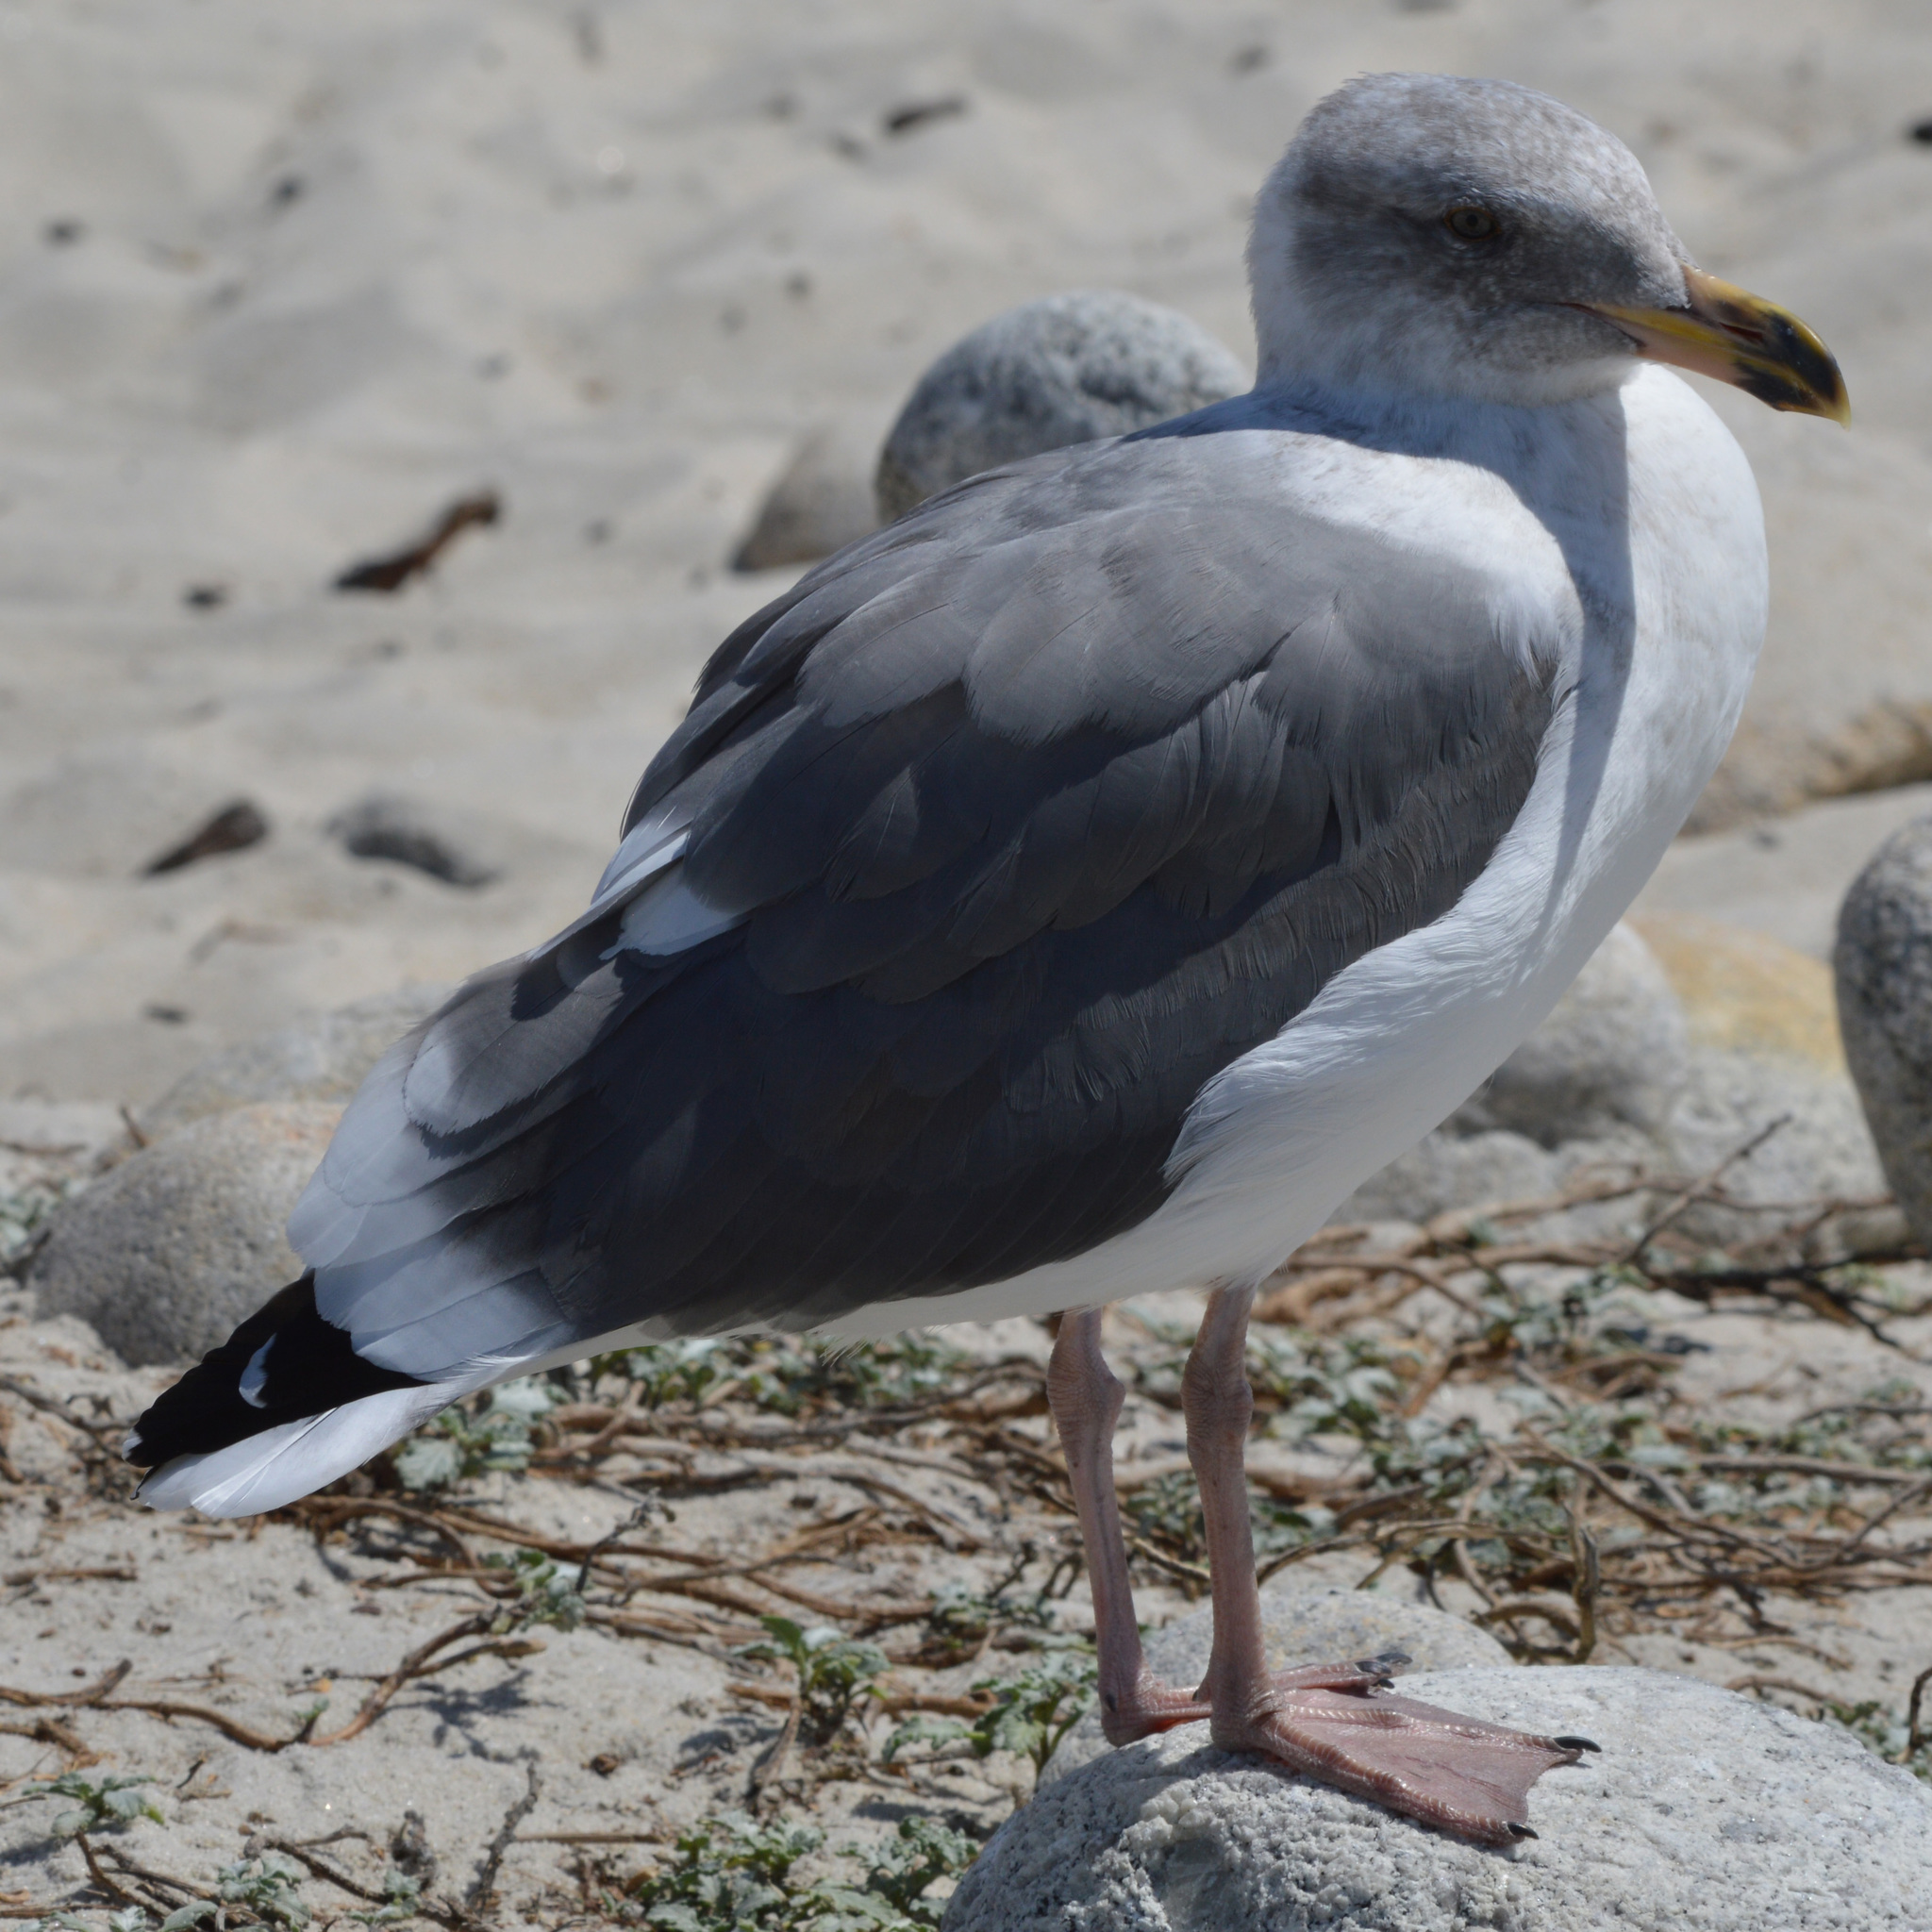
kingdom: Animalia
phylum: Chordata
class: Aves
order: Charadriiformes
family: Laridae
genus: Larus
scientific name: Larus occidentalis
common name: Western gull
